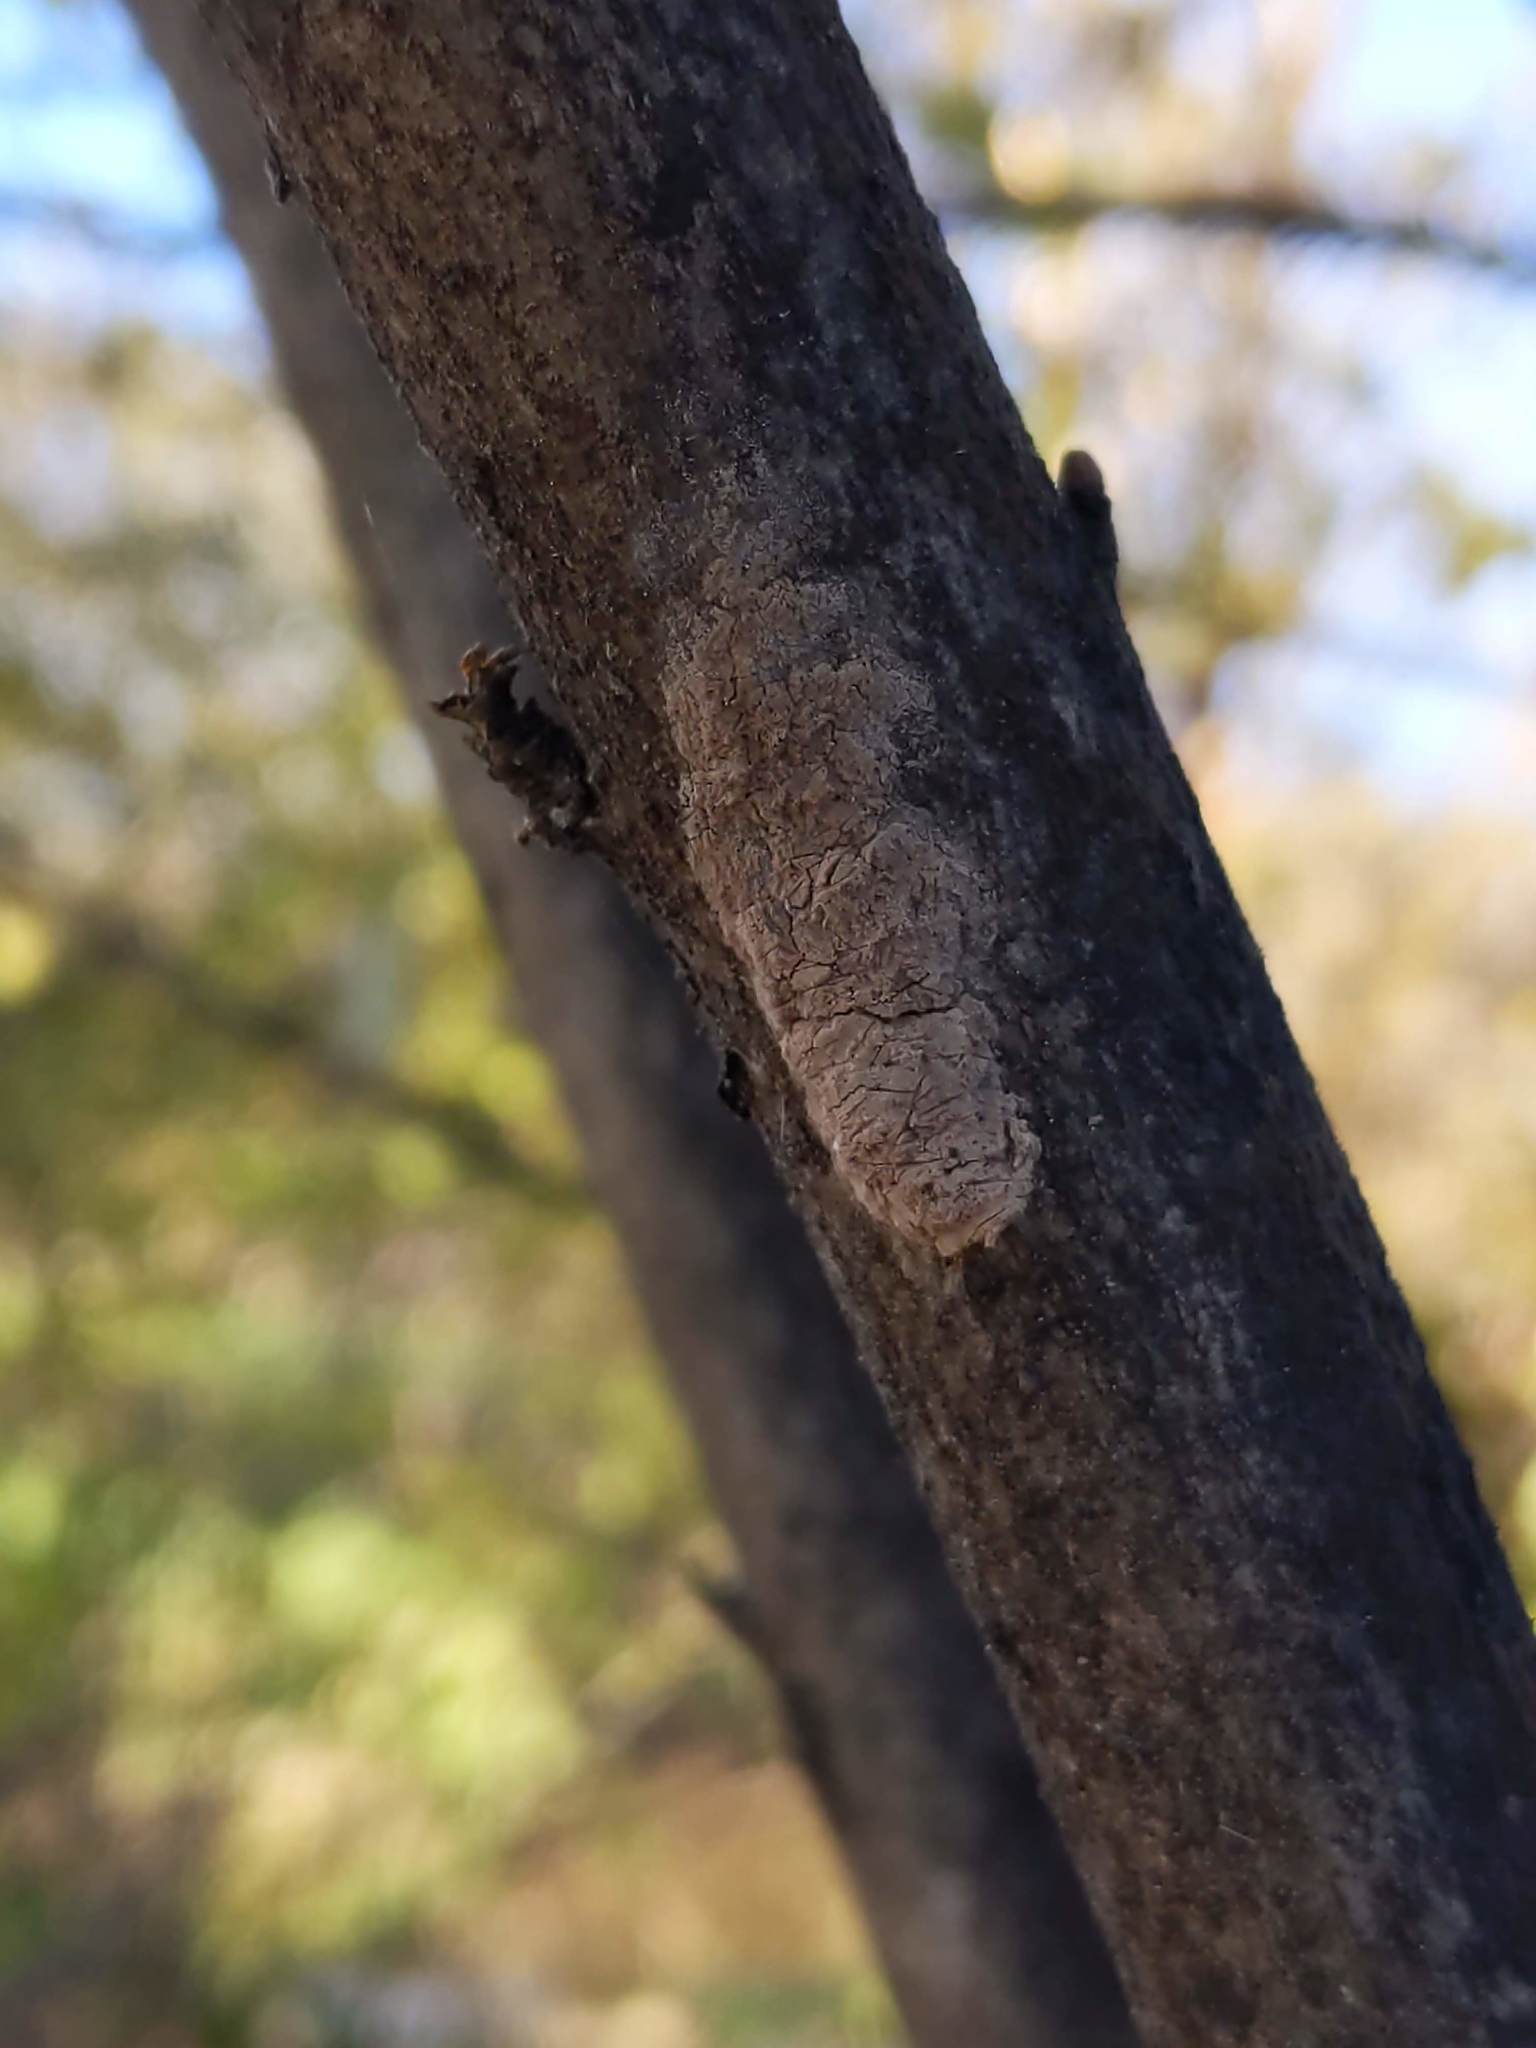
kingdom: Animalia
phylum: Arthropoda
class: Insecta
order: Hemiptera
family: Fulgoridae
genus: Lycorma
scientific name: Lycorma delicatula
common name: Spotted lanternfly
